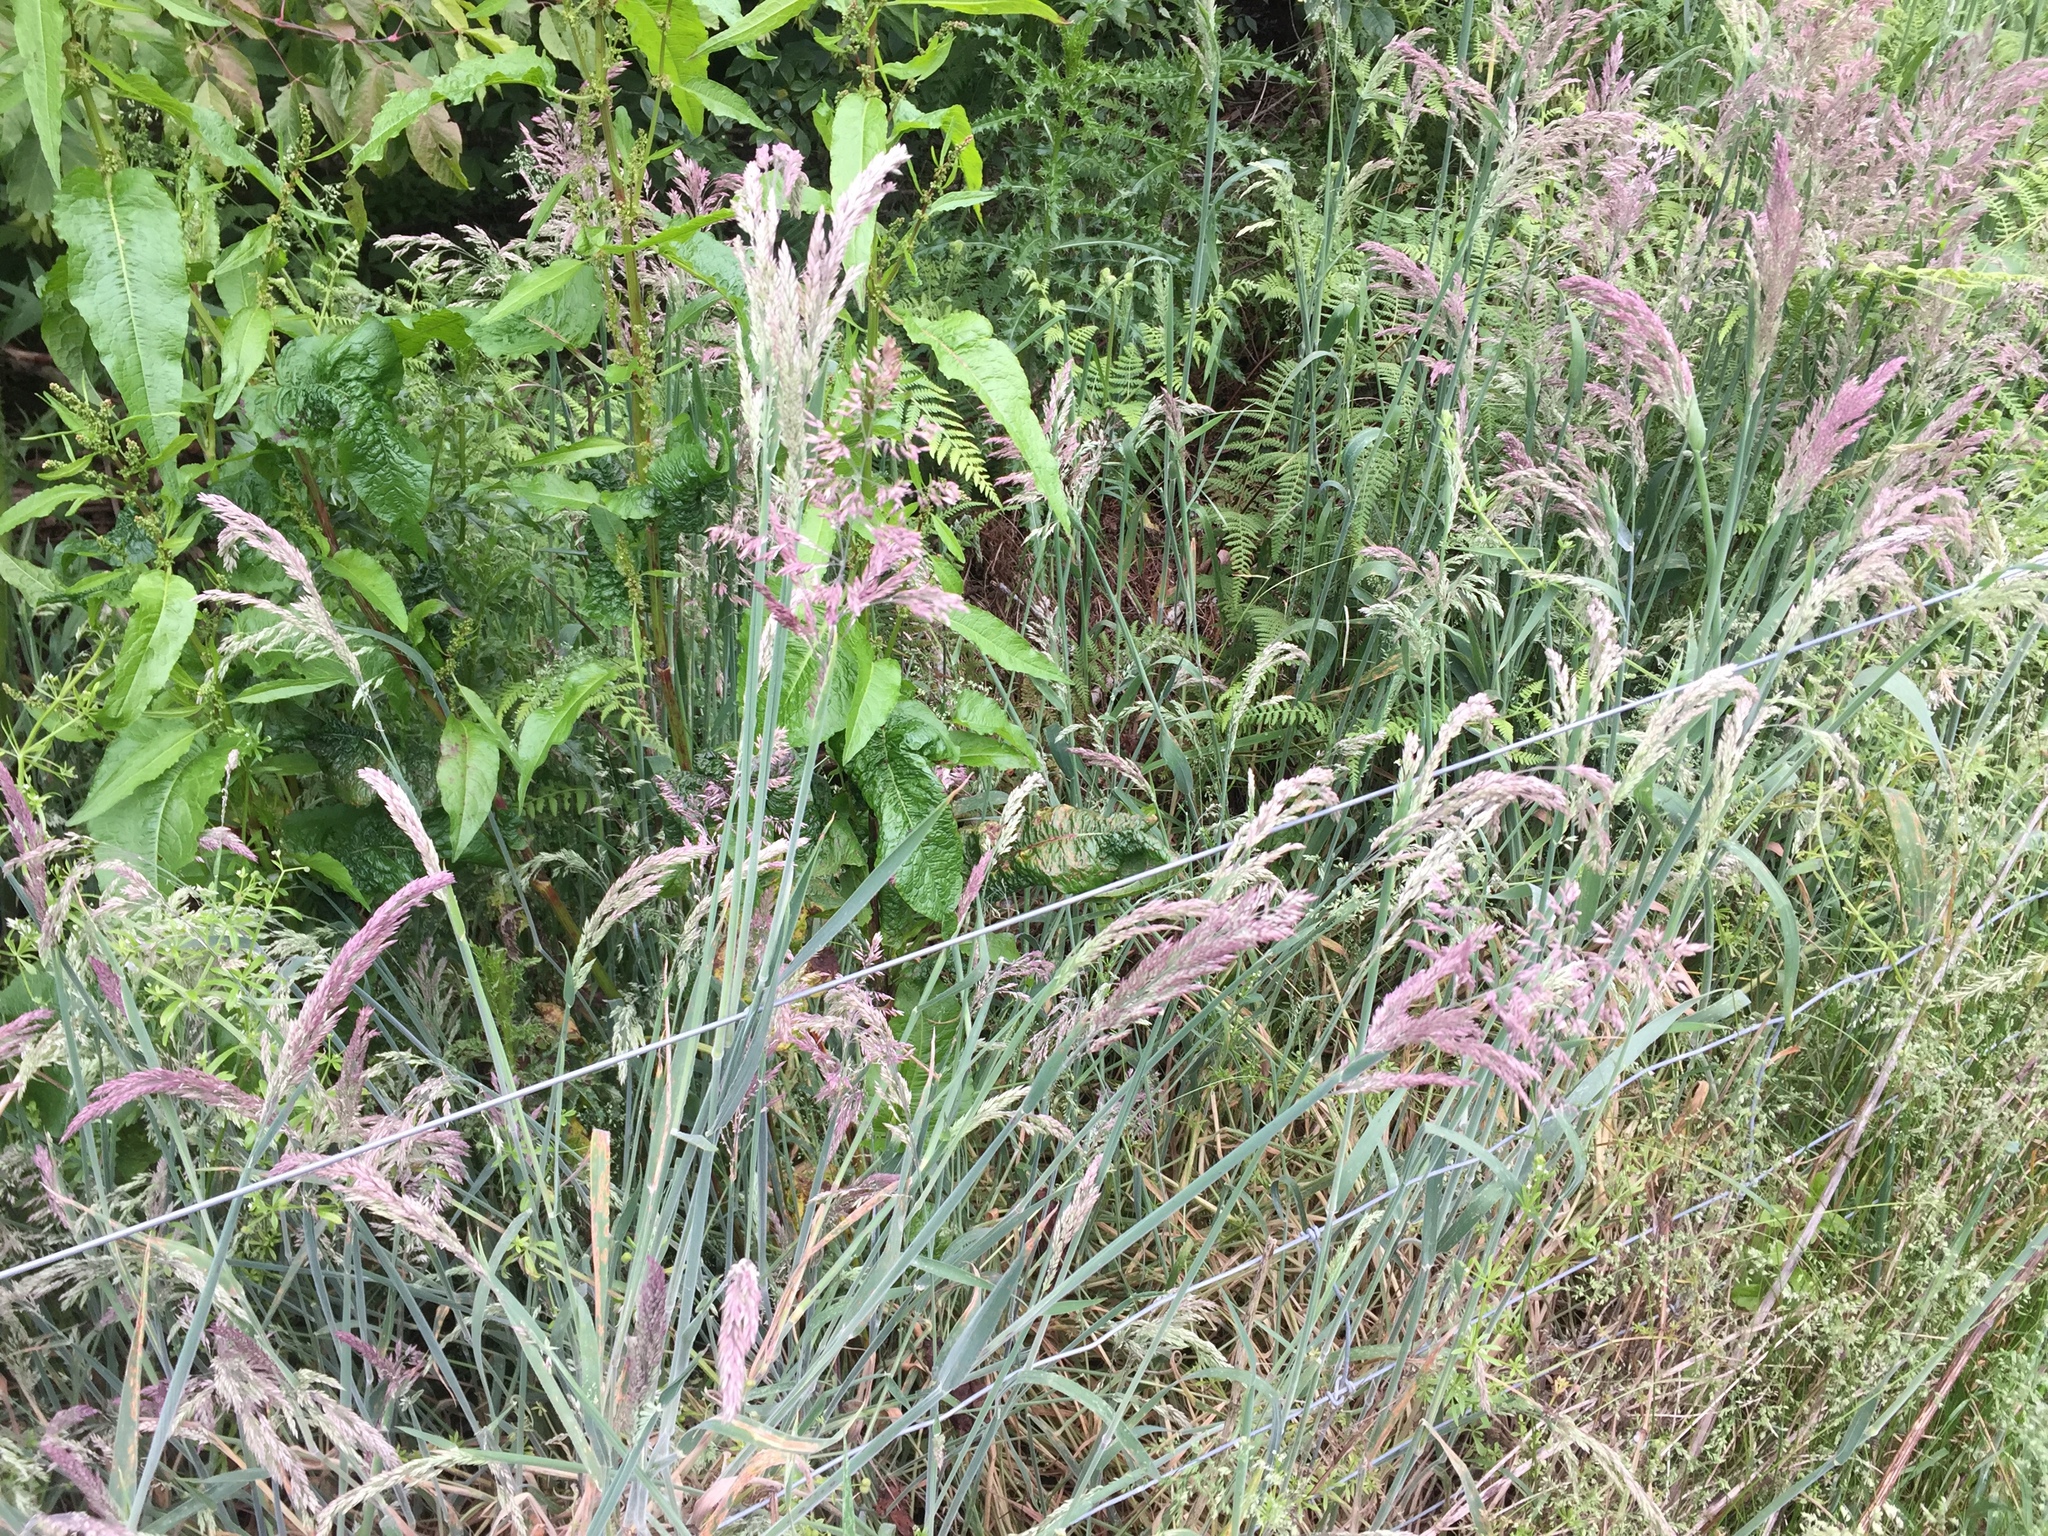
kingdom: Plantae
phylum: Tracheophyta
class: Liliopsida
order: Poales
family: Poaceae
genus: Holcus
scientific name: Holcus lanatus
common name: Yorkshire-fog
